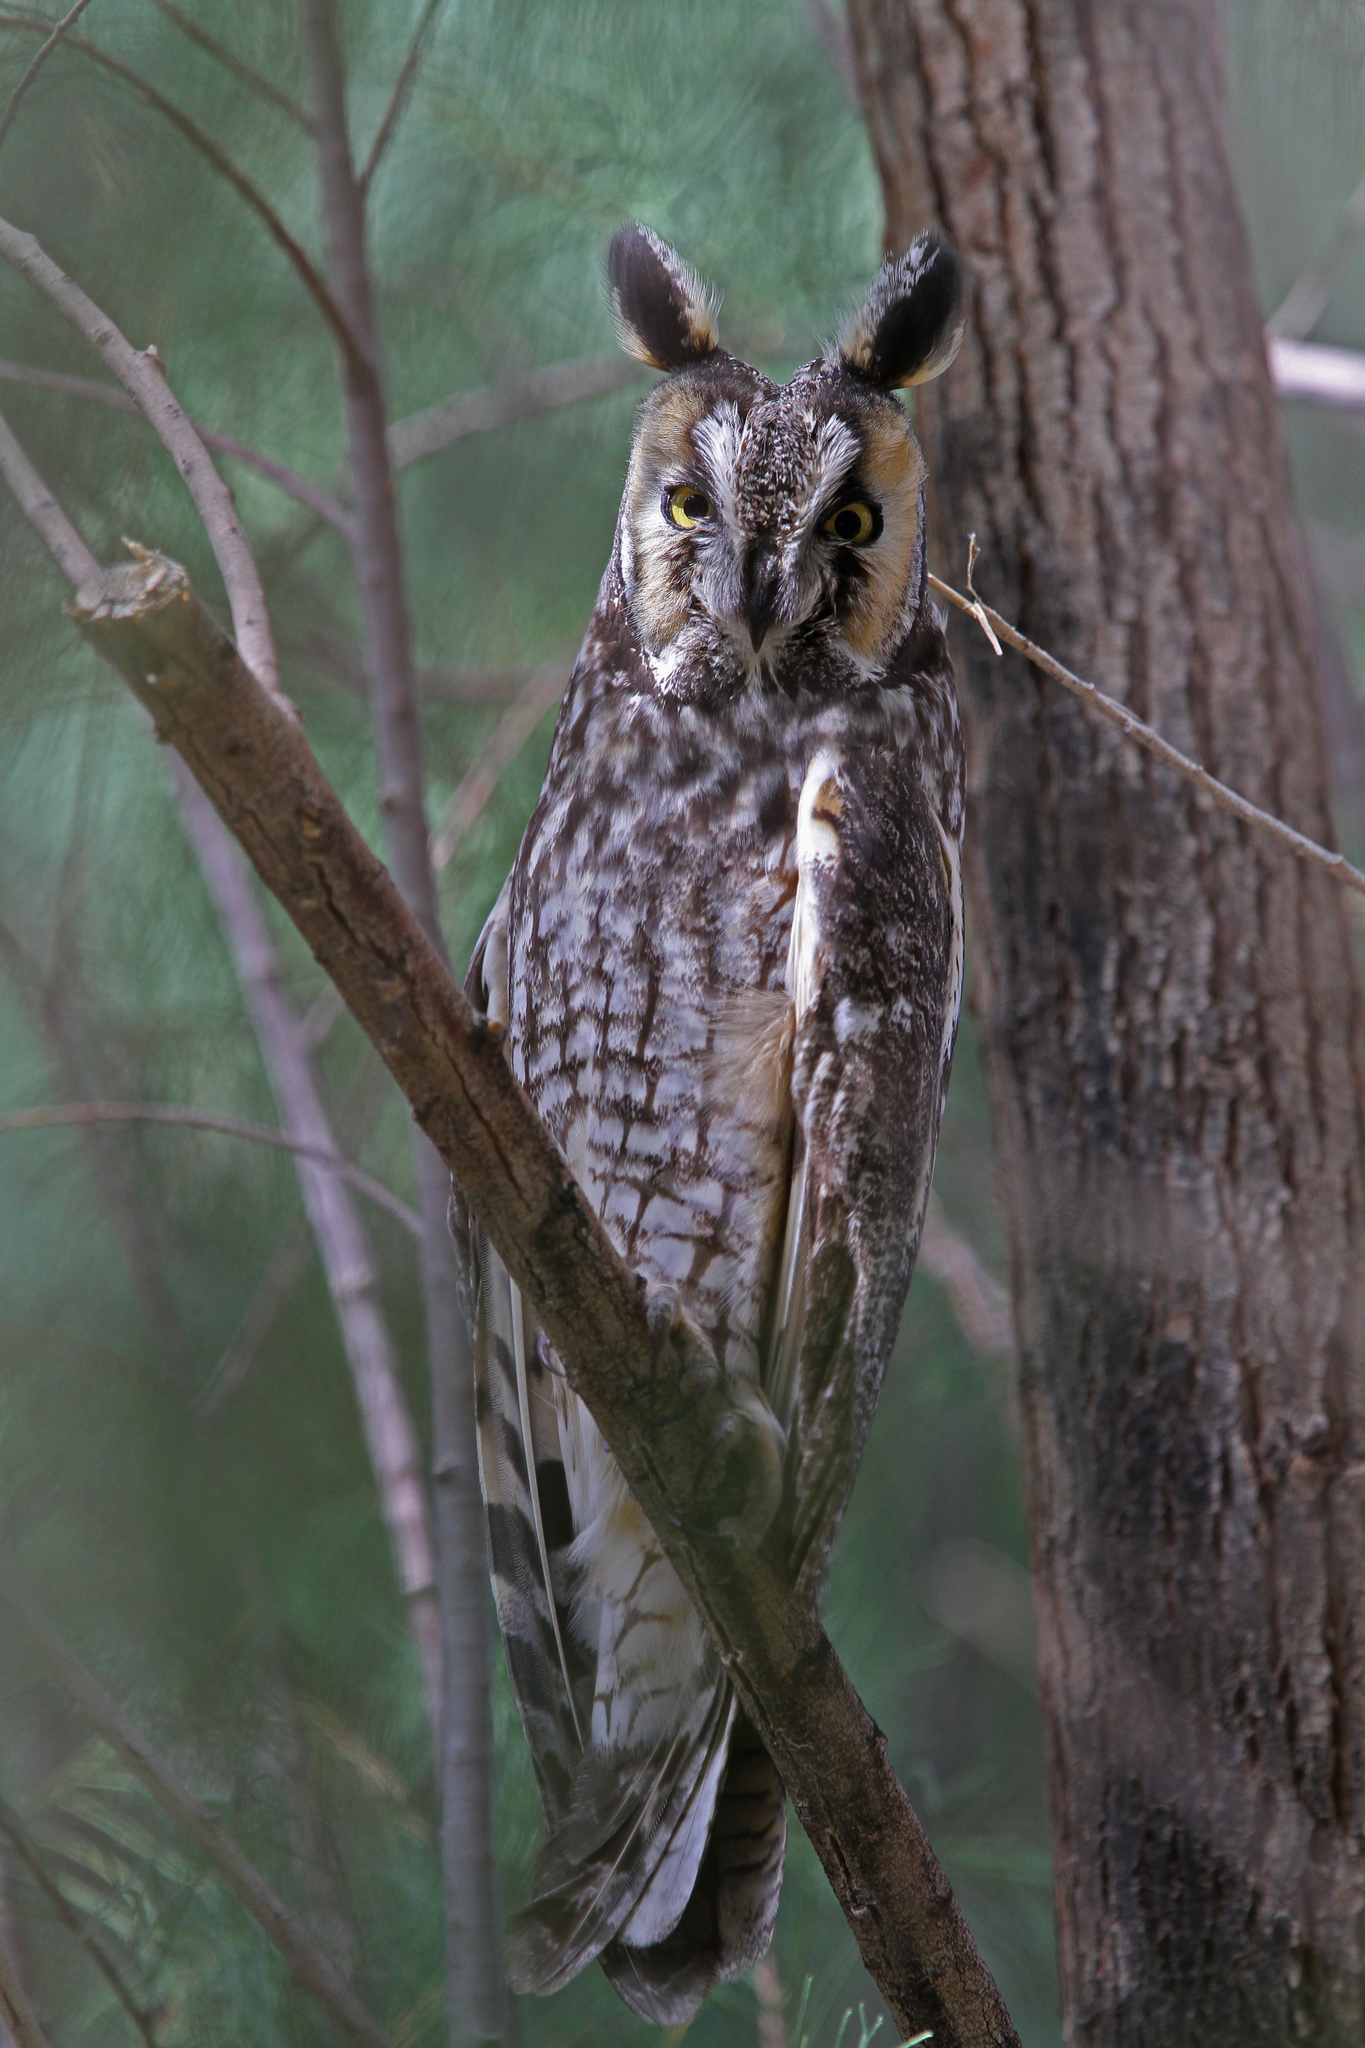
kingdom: Animalia
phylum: Chordata
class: Aves
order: Strigiformes
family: Strigidae
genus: Asio
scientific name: Asio otus
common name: Long-eared owl
